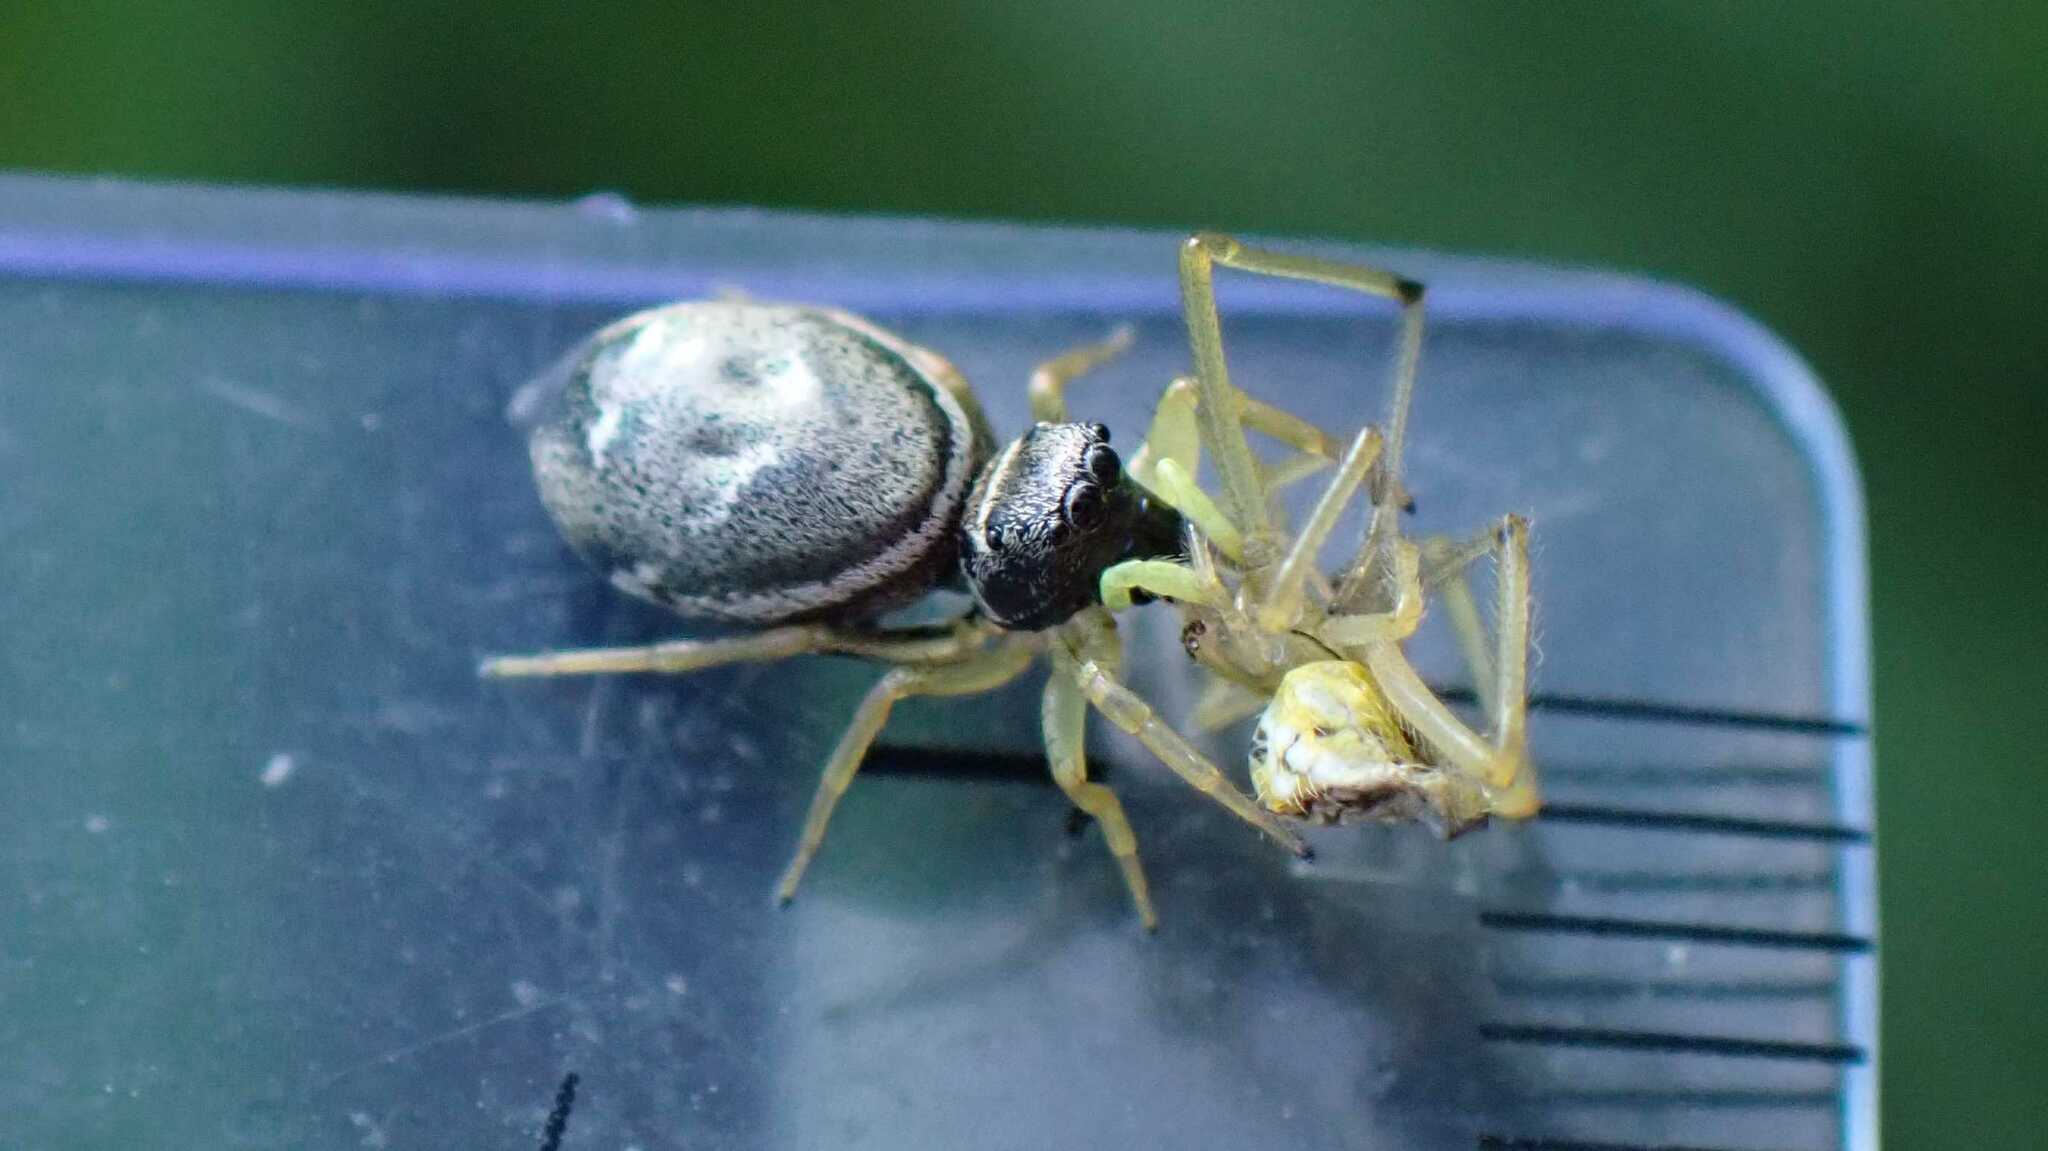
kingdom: Animalia
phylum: Arthropoda
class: Arachnida
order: Araneae
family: Theridiidae
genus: Enoplognatha
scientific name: Enoplognatha
